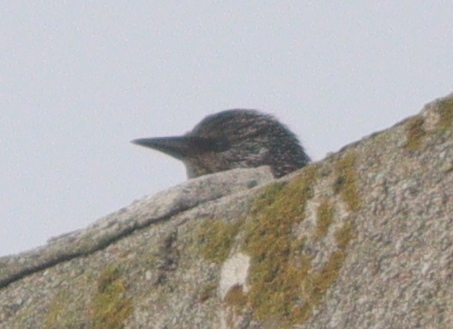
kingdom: Animalia
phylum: Chordata
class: Aves
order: Passeriformes
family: Sturnidae
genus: Sturnus
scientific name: Sturnus vulgaris
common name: Common starling
